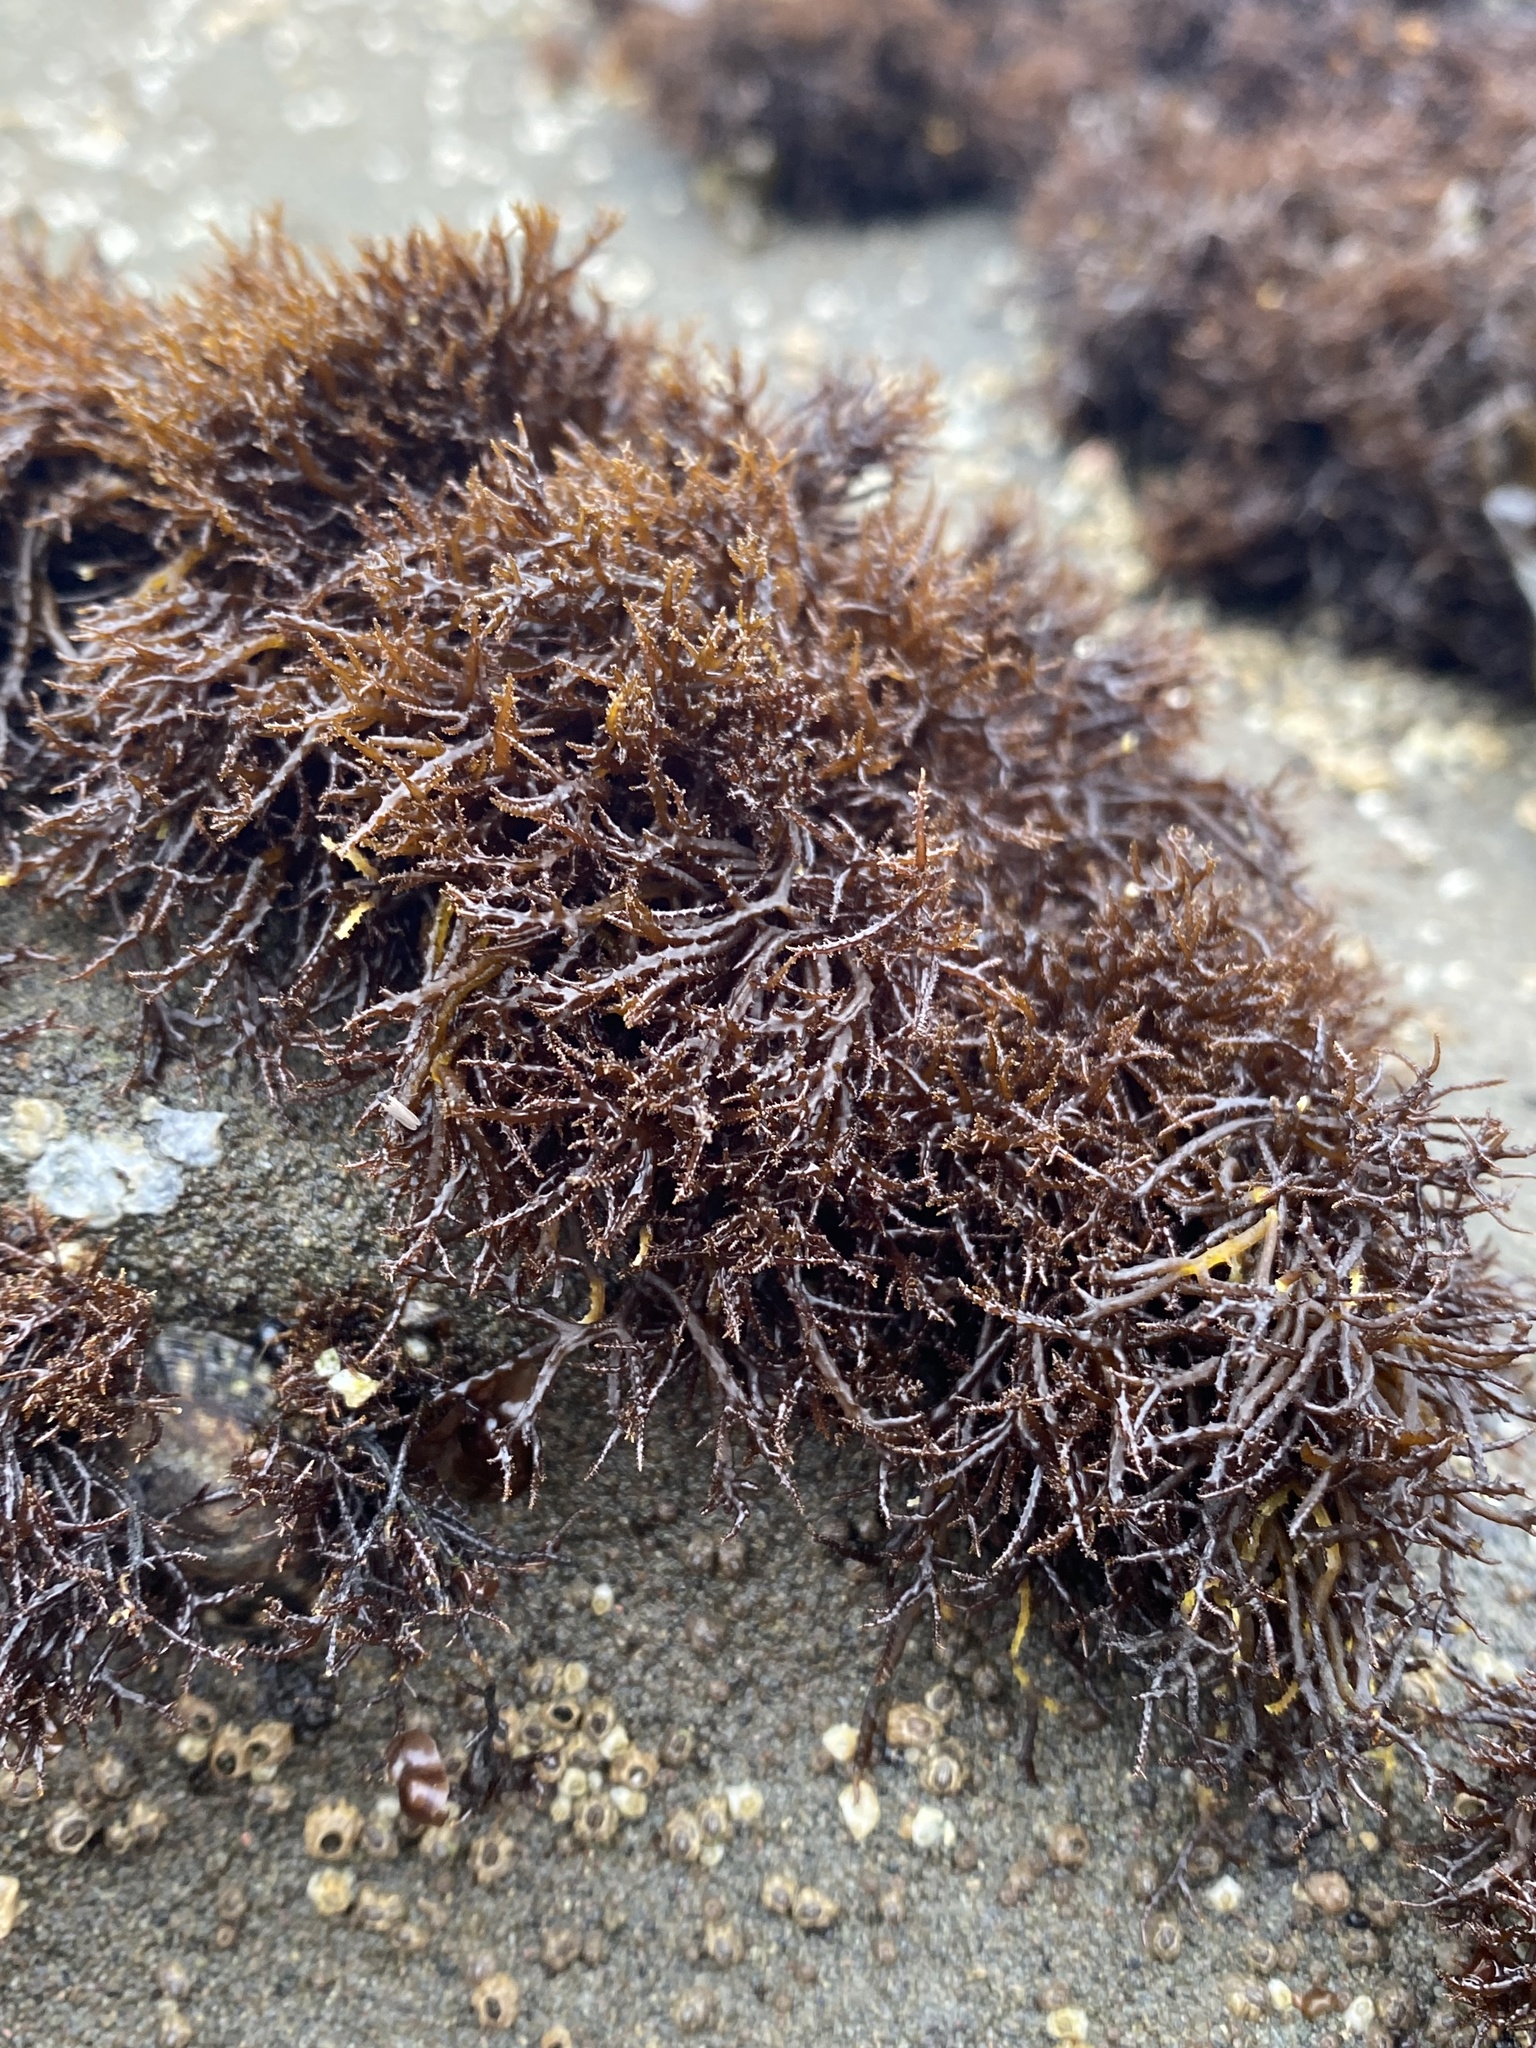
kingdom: Plantae
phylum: Rhodophyta
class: Florideophyceae
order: Gigartinales
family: Endocladiaceae
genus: Endocladia
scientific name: Endocladia muricata
